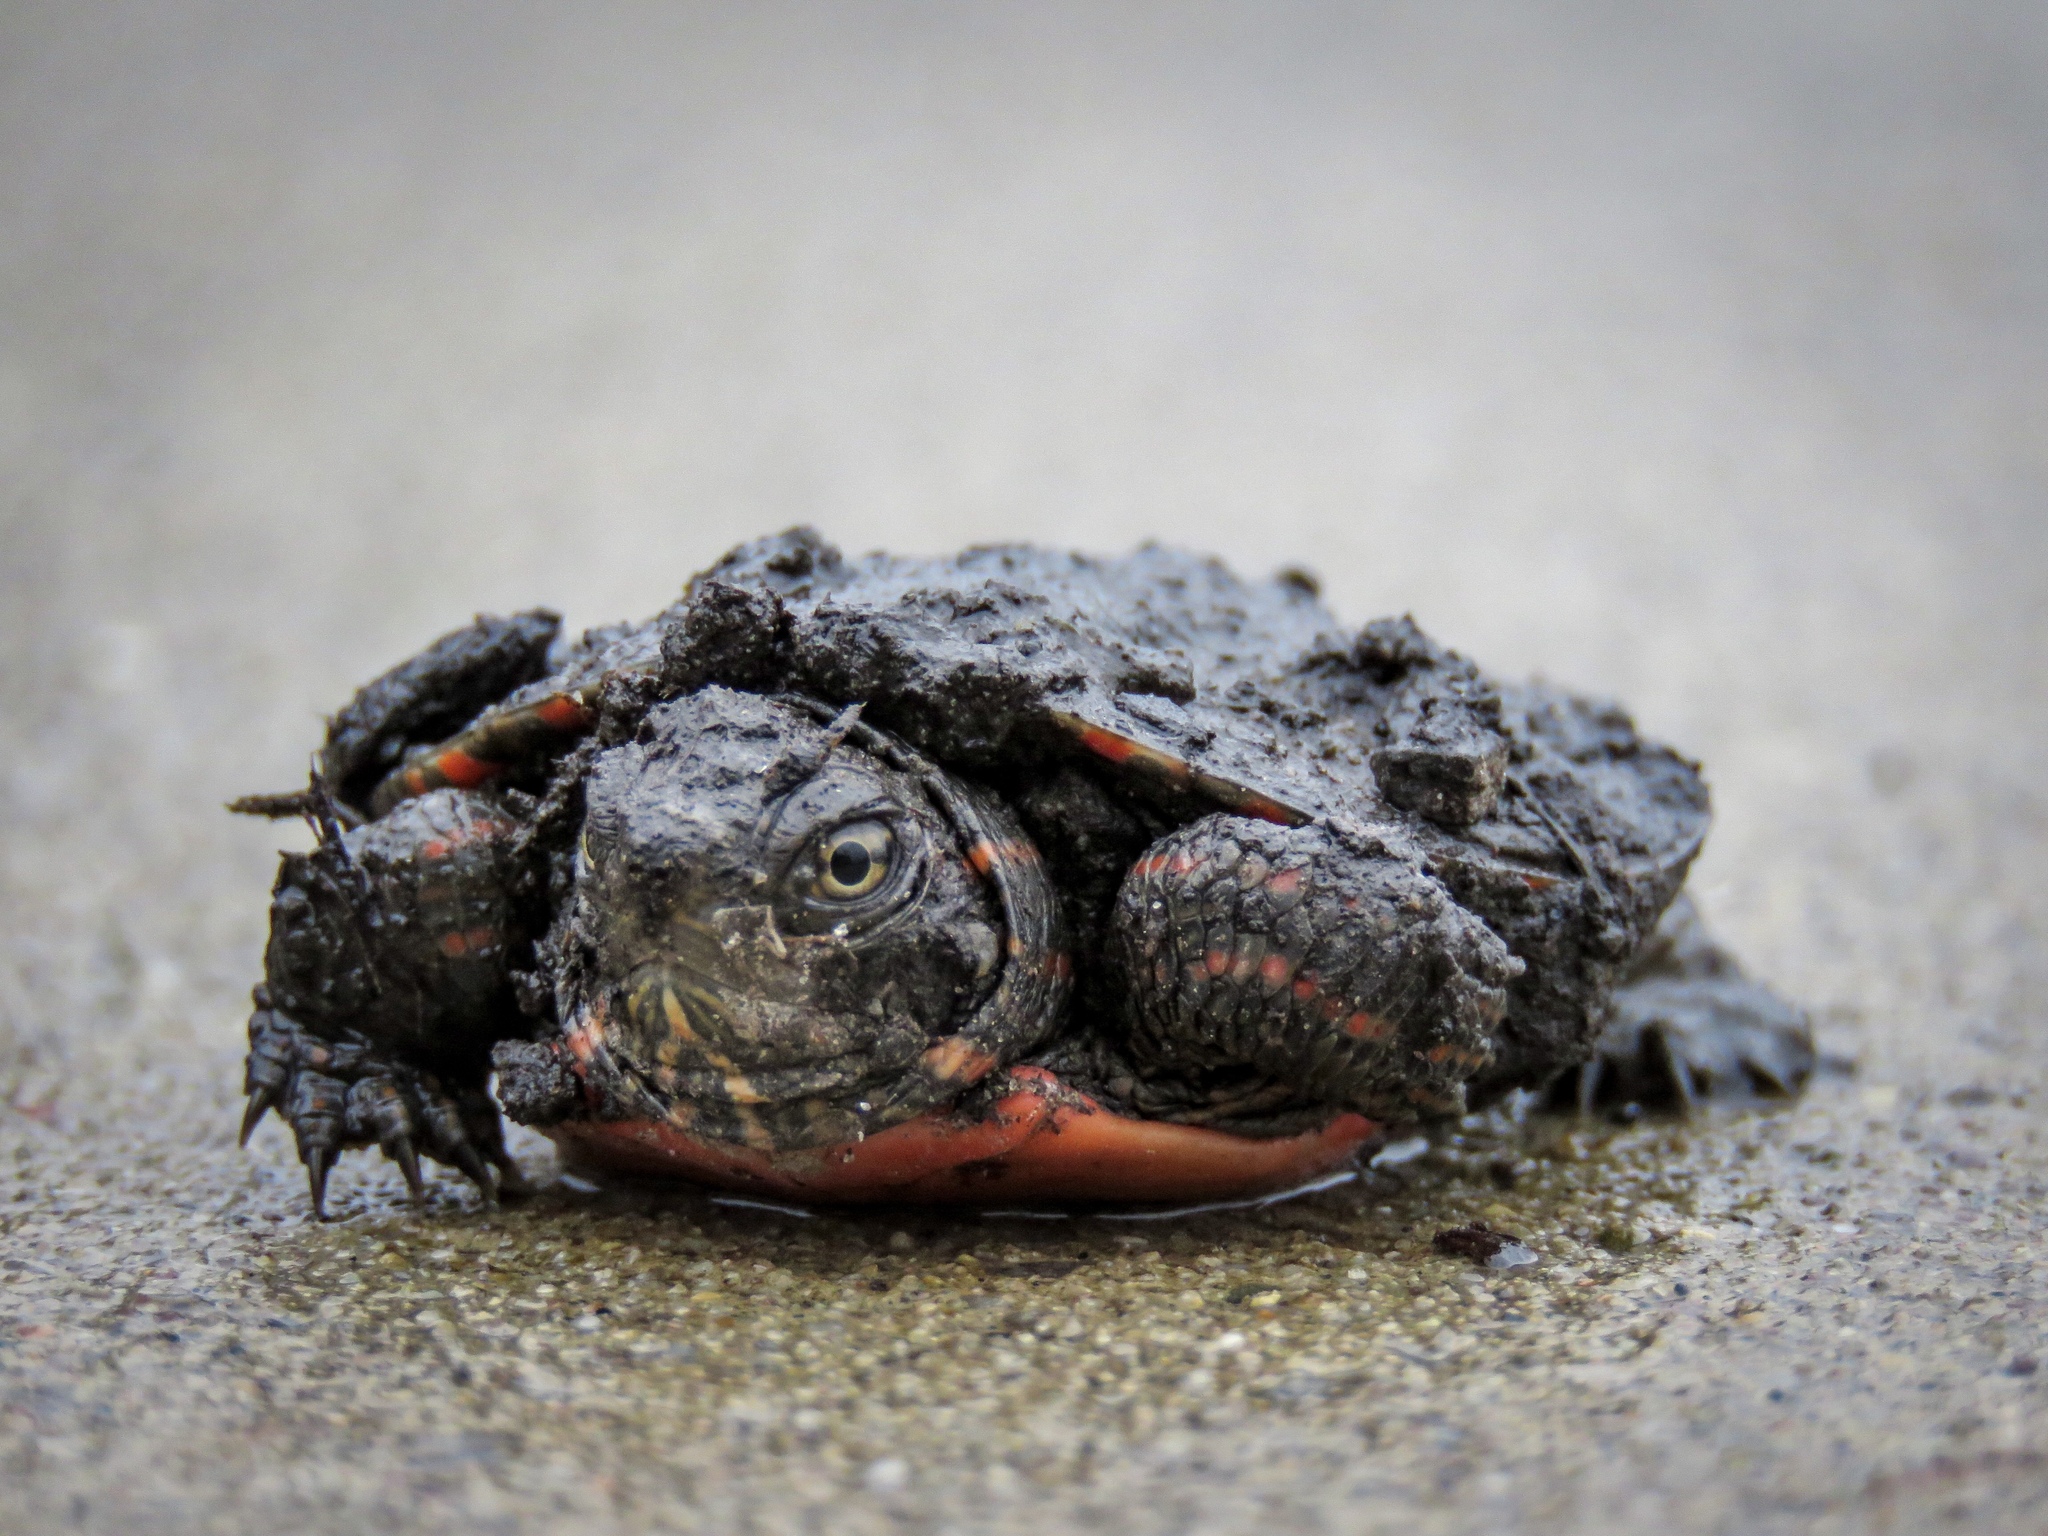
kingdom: Animalia
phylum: Chordata
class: Testudines
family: Emydidae
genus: Chrysemys
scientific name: Chrysemys picta
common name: Painted turtle
